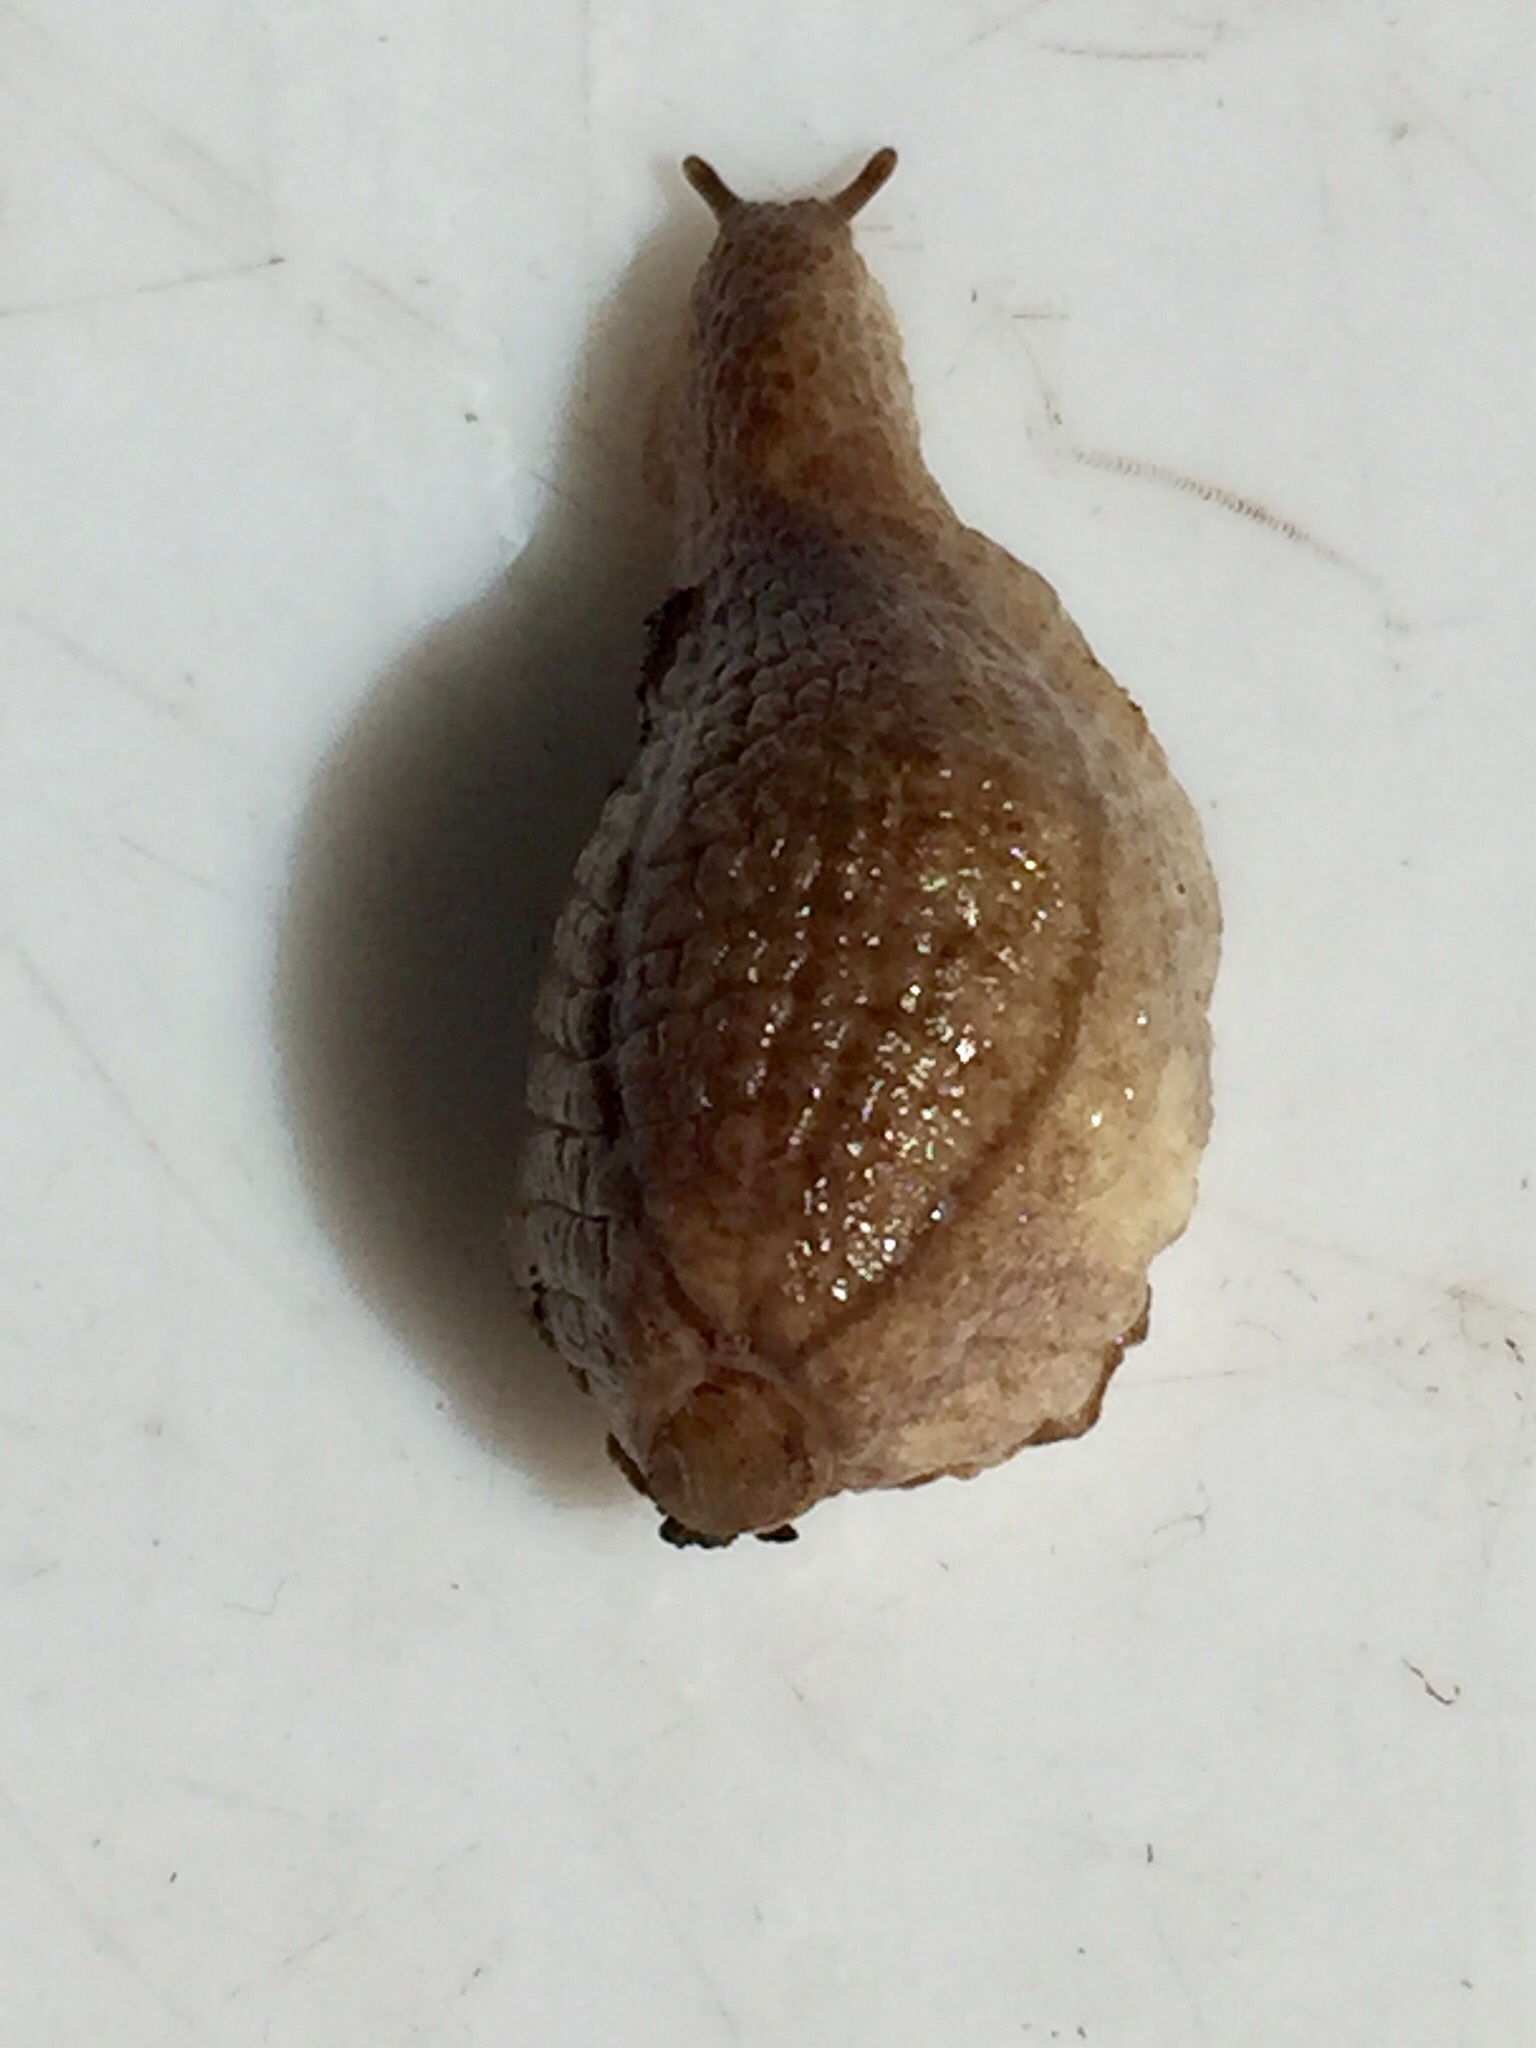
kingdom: Animalia
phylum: Mollusca
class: Gastropoda
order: Stylommatophora
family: Testacellidae
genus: Testacella
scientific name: Testacella haliotidea
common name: Shelled slug
